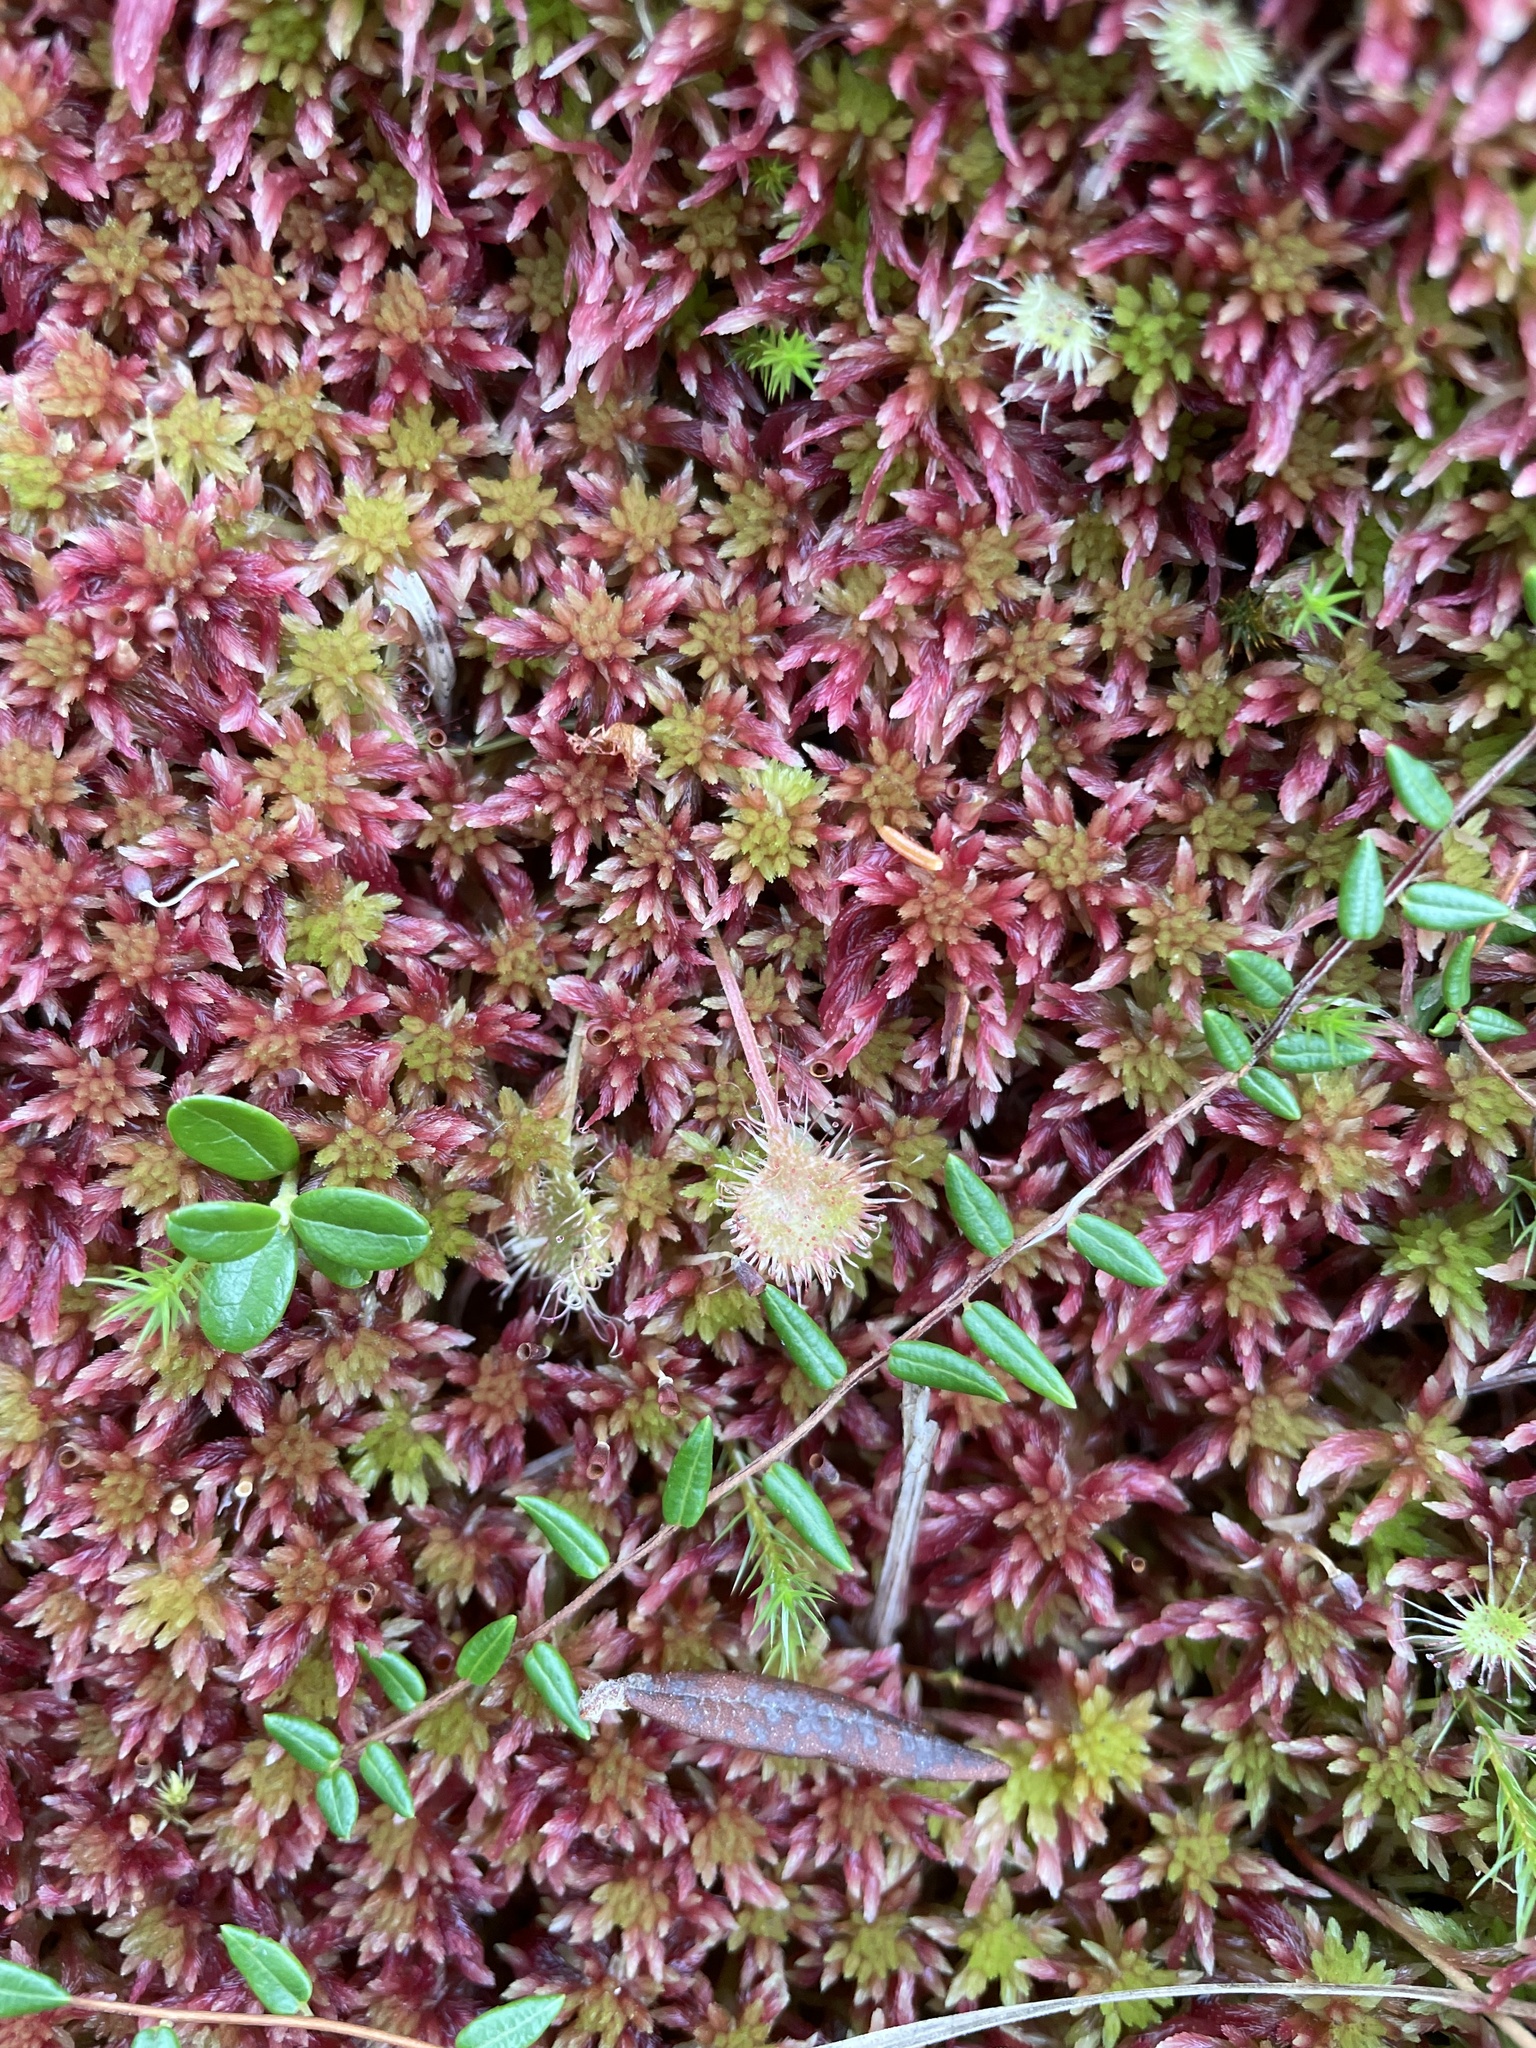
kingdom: Plantae
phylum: Tracheophyta
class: Magnoliopsida
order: Ericales
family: Ericaceae
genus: Vaccinium
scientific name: Vaccinium vitis-idaea
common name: Cowberry
